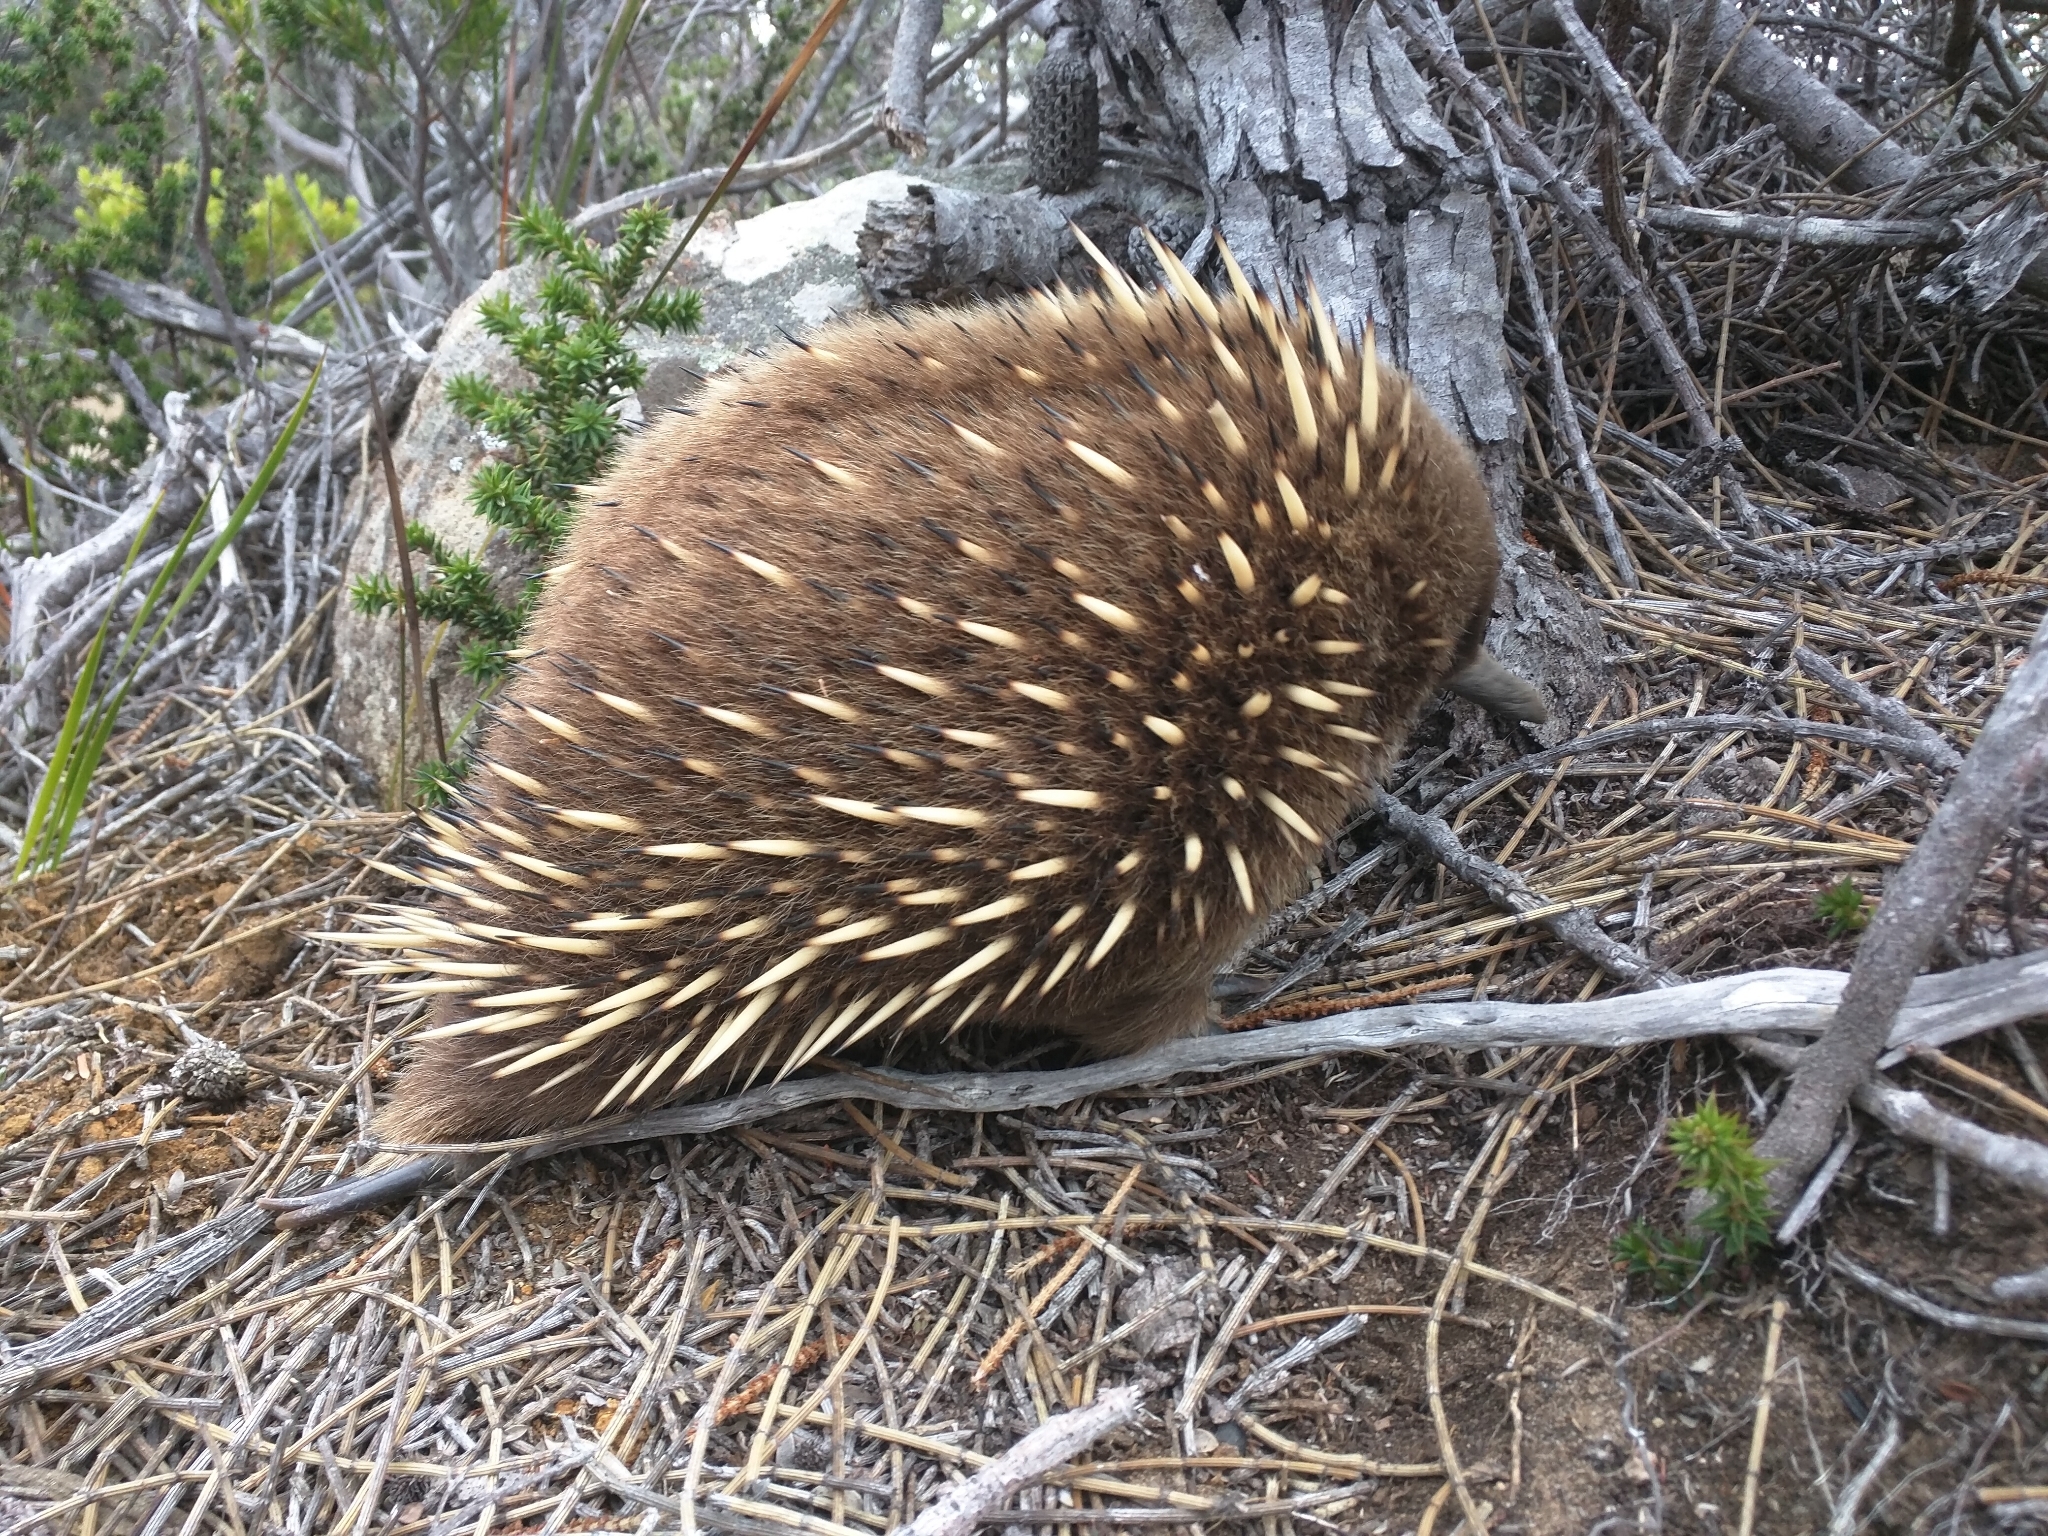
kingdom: Animalia
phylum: Chordata
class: Mammalia
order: Monotremata
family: Tachyglossidae
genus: Tachyglossus
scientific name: Tachyglossus aculeatus
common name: Short-beaked echidna
